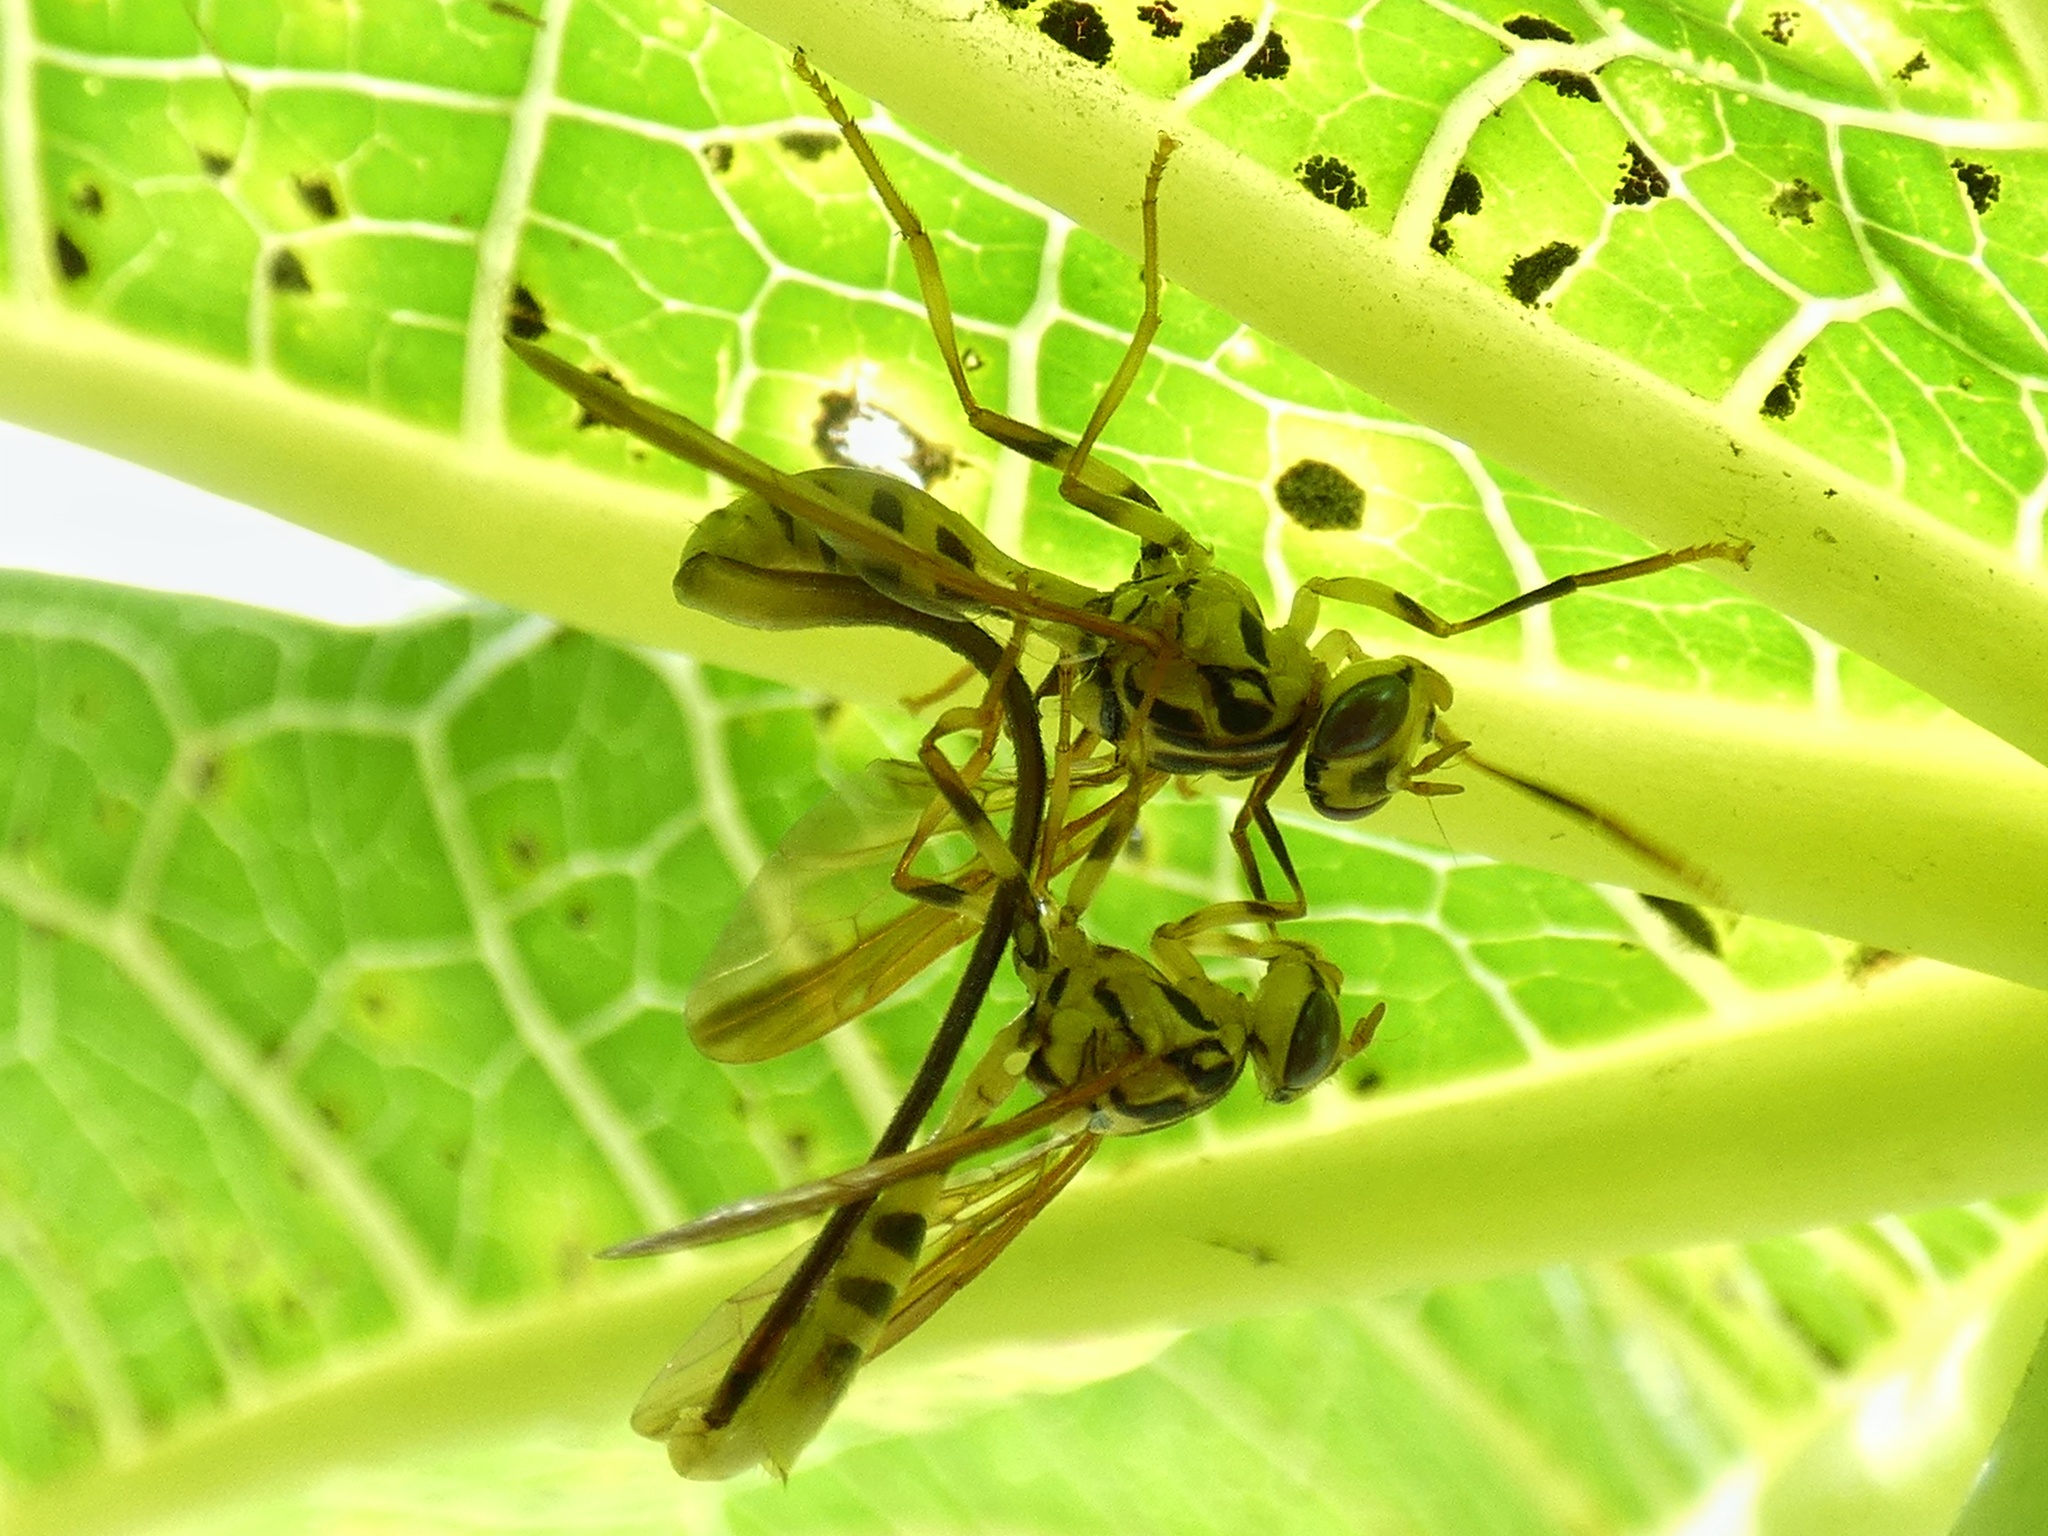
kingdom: Animalia
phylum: Arthropoda
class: Insecta
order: Diptera
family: Tephritidae
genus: Anastrepha
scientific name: Anastrepha curvicauda
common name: Papaya fruit fly
